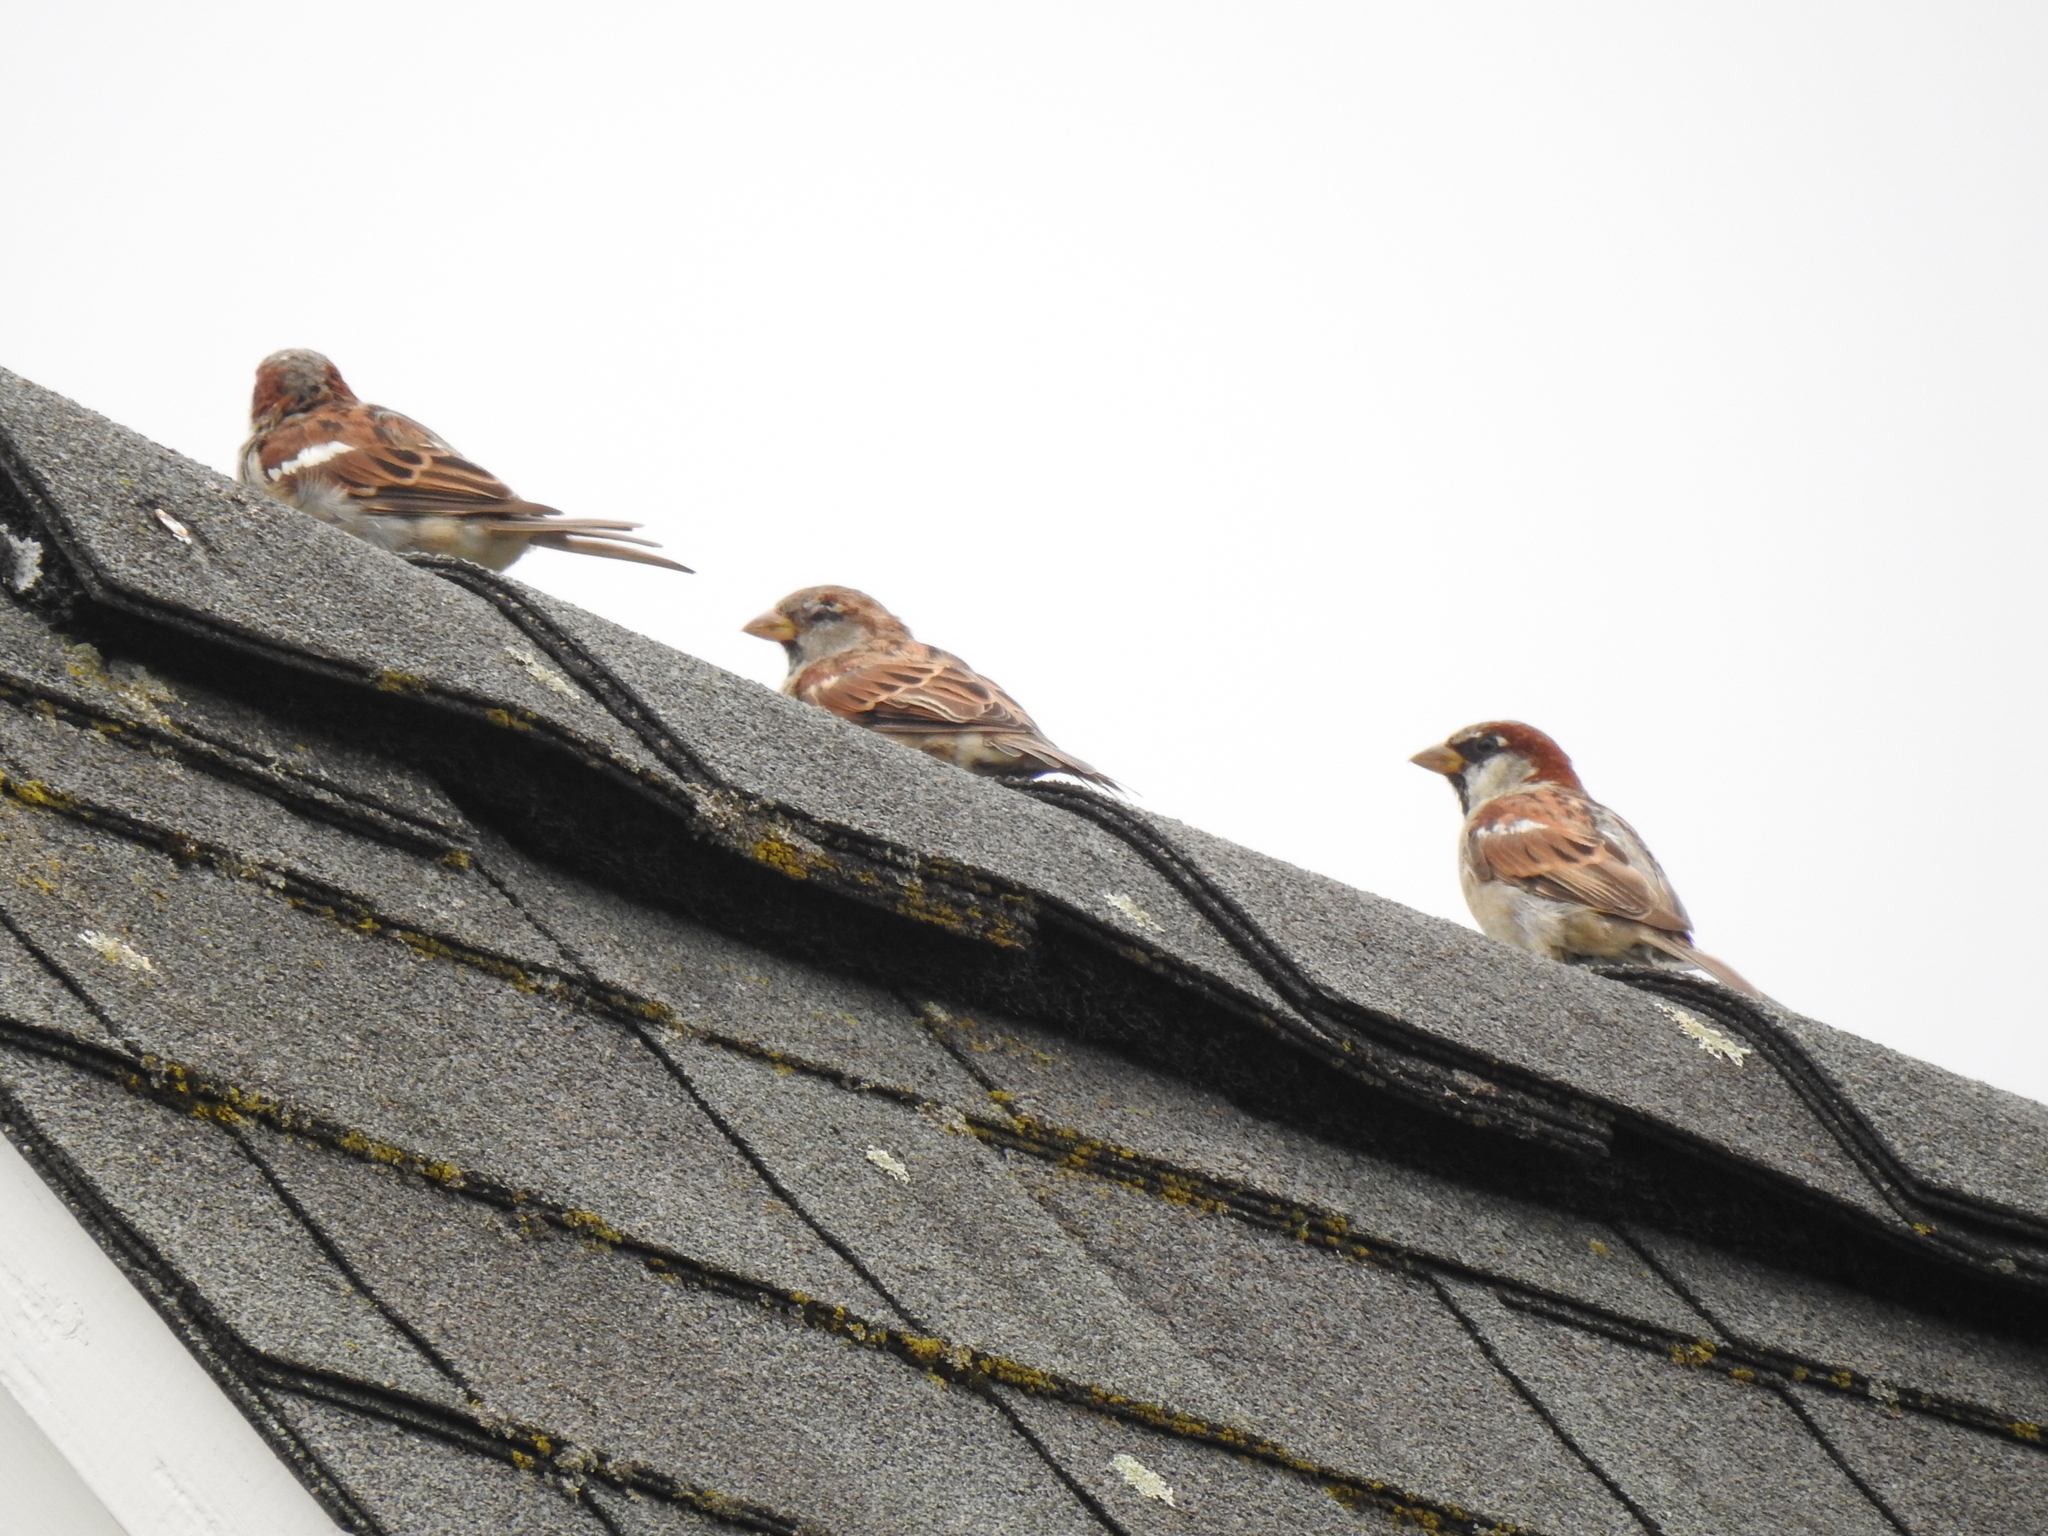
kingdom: Animalia
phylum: Chordata
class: Aves
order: Passeriformes
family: Passeridae
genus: Passer
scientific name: Passer domesticus
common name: House sparrow
